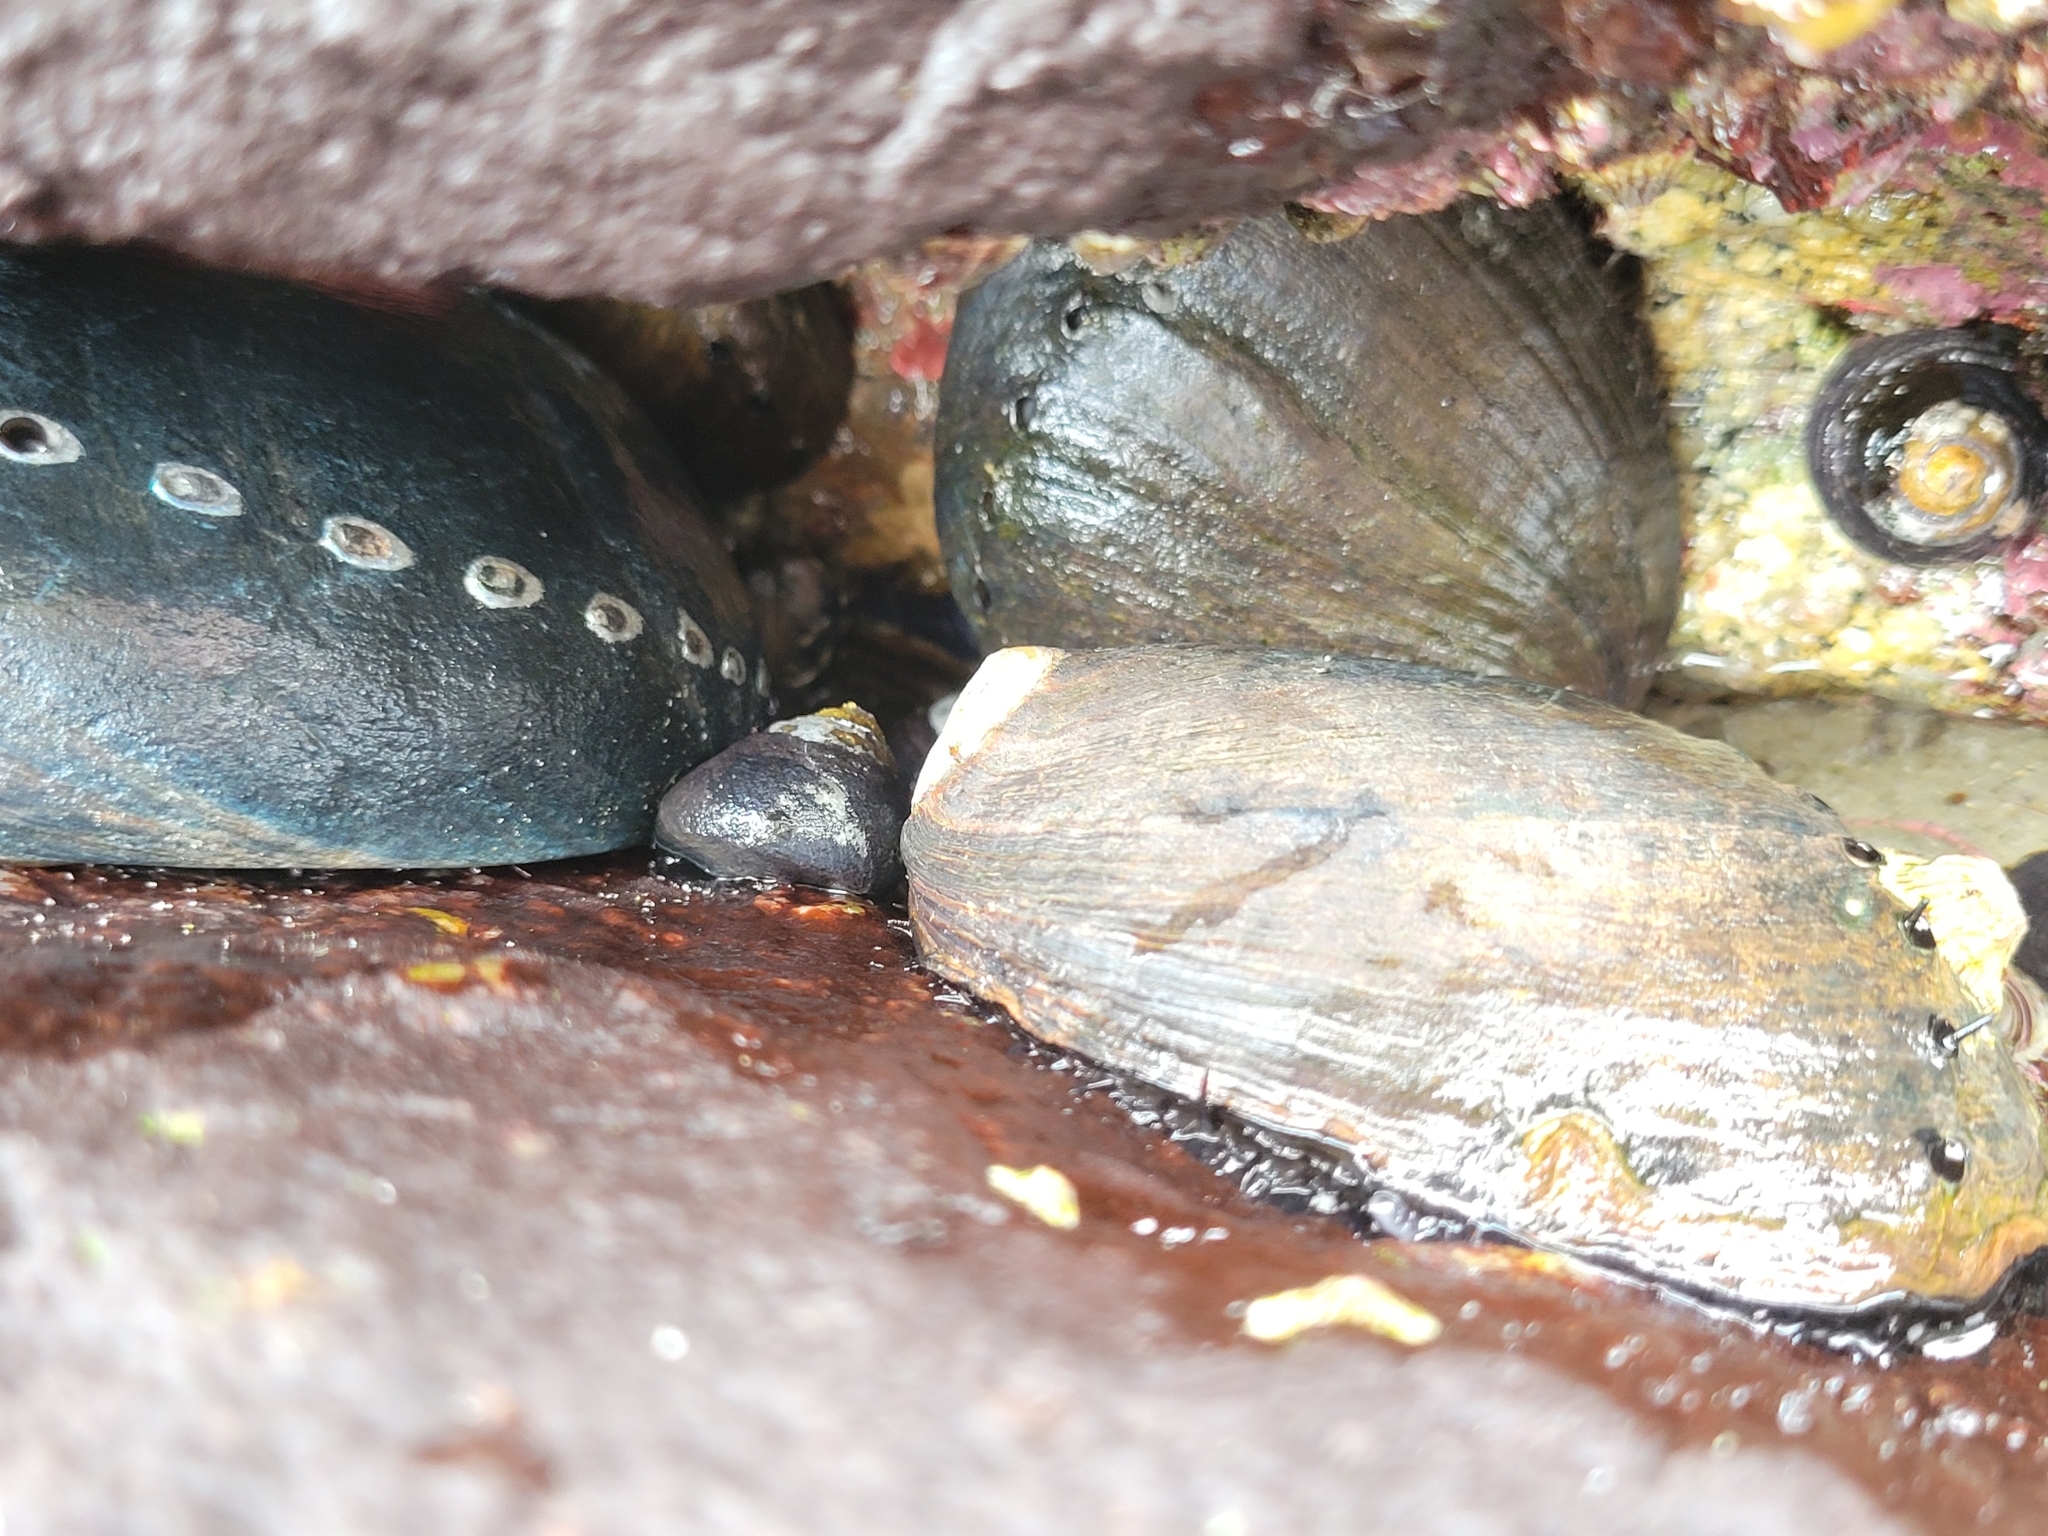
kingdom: Animalia
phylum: Mollusca
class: Gastropoda
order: Lepetellida
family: Haliotidae
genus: Haliotis
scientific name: Haliotis cracherodii
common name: Black abalone
